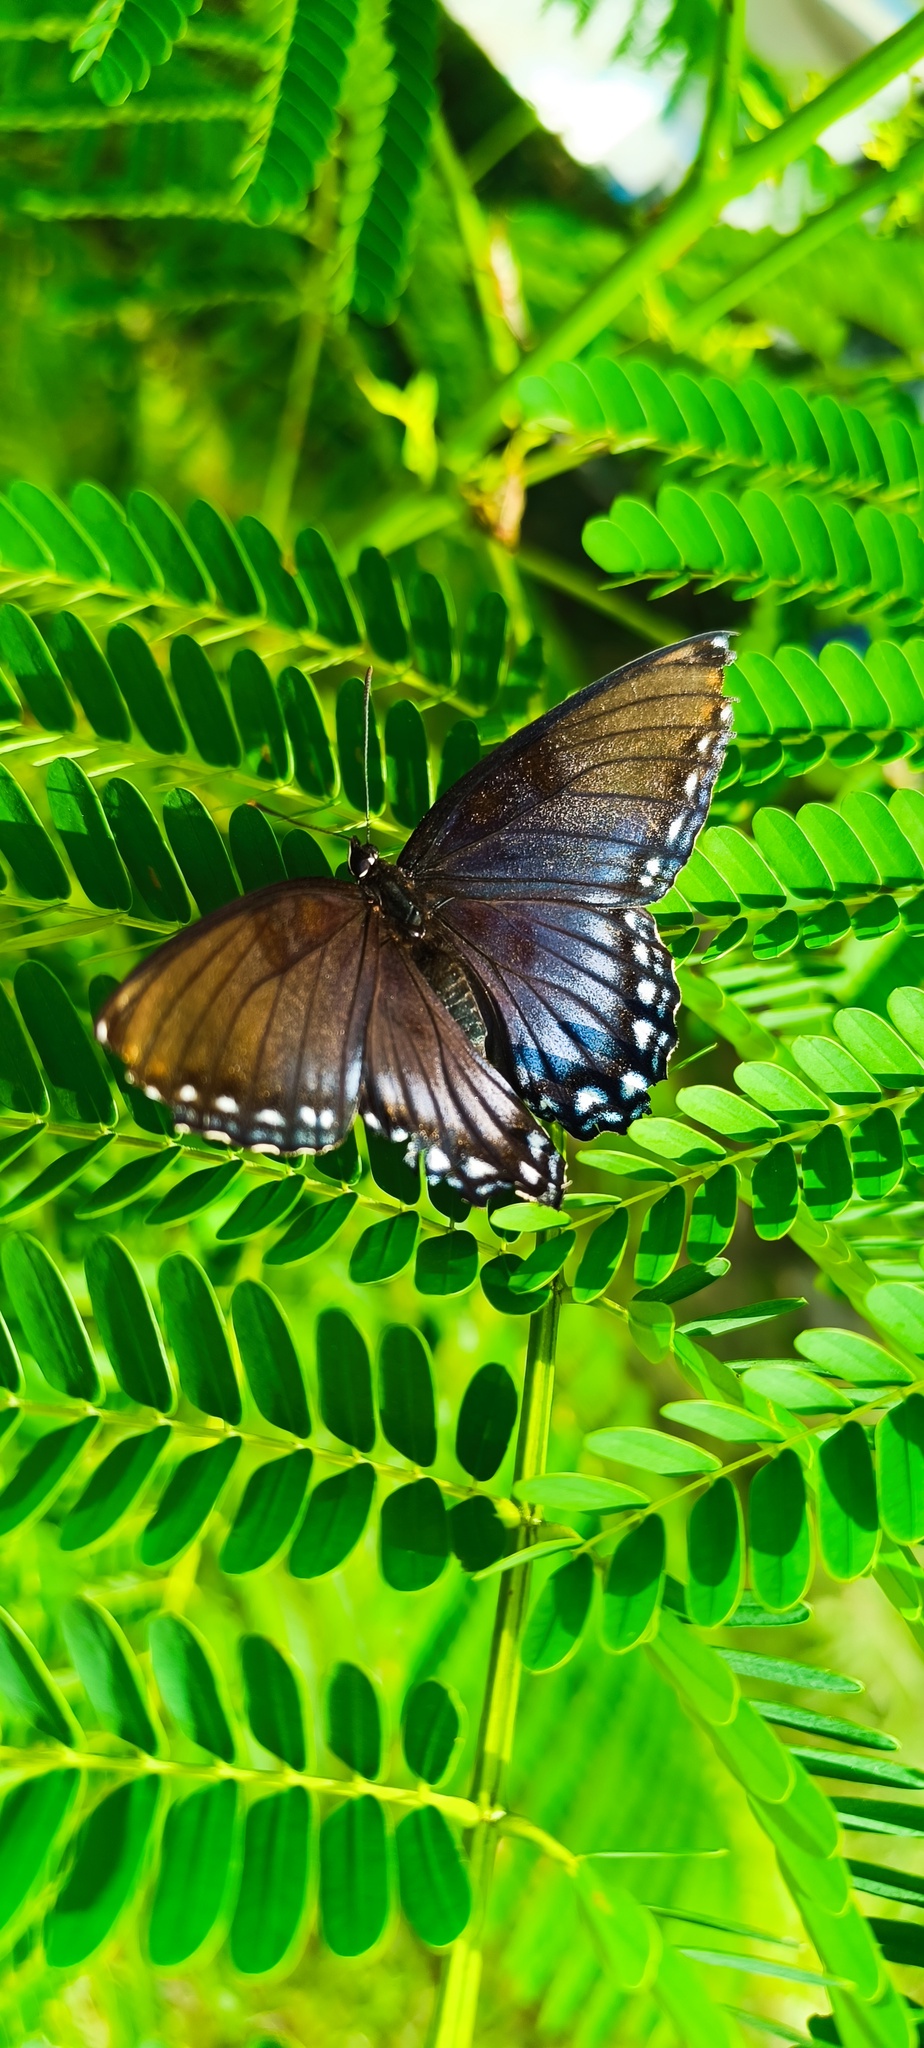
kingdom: Animalia
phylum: Arthropoda
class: Insecta
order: Lepidoptera
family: Nymphalidae
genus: Limenitis
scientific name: Limenitis arthemis
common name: Red-spotted admiral
